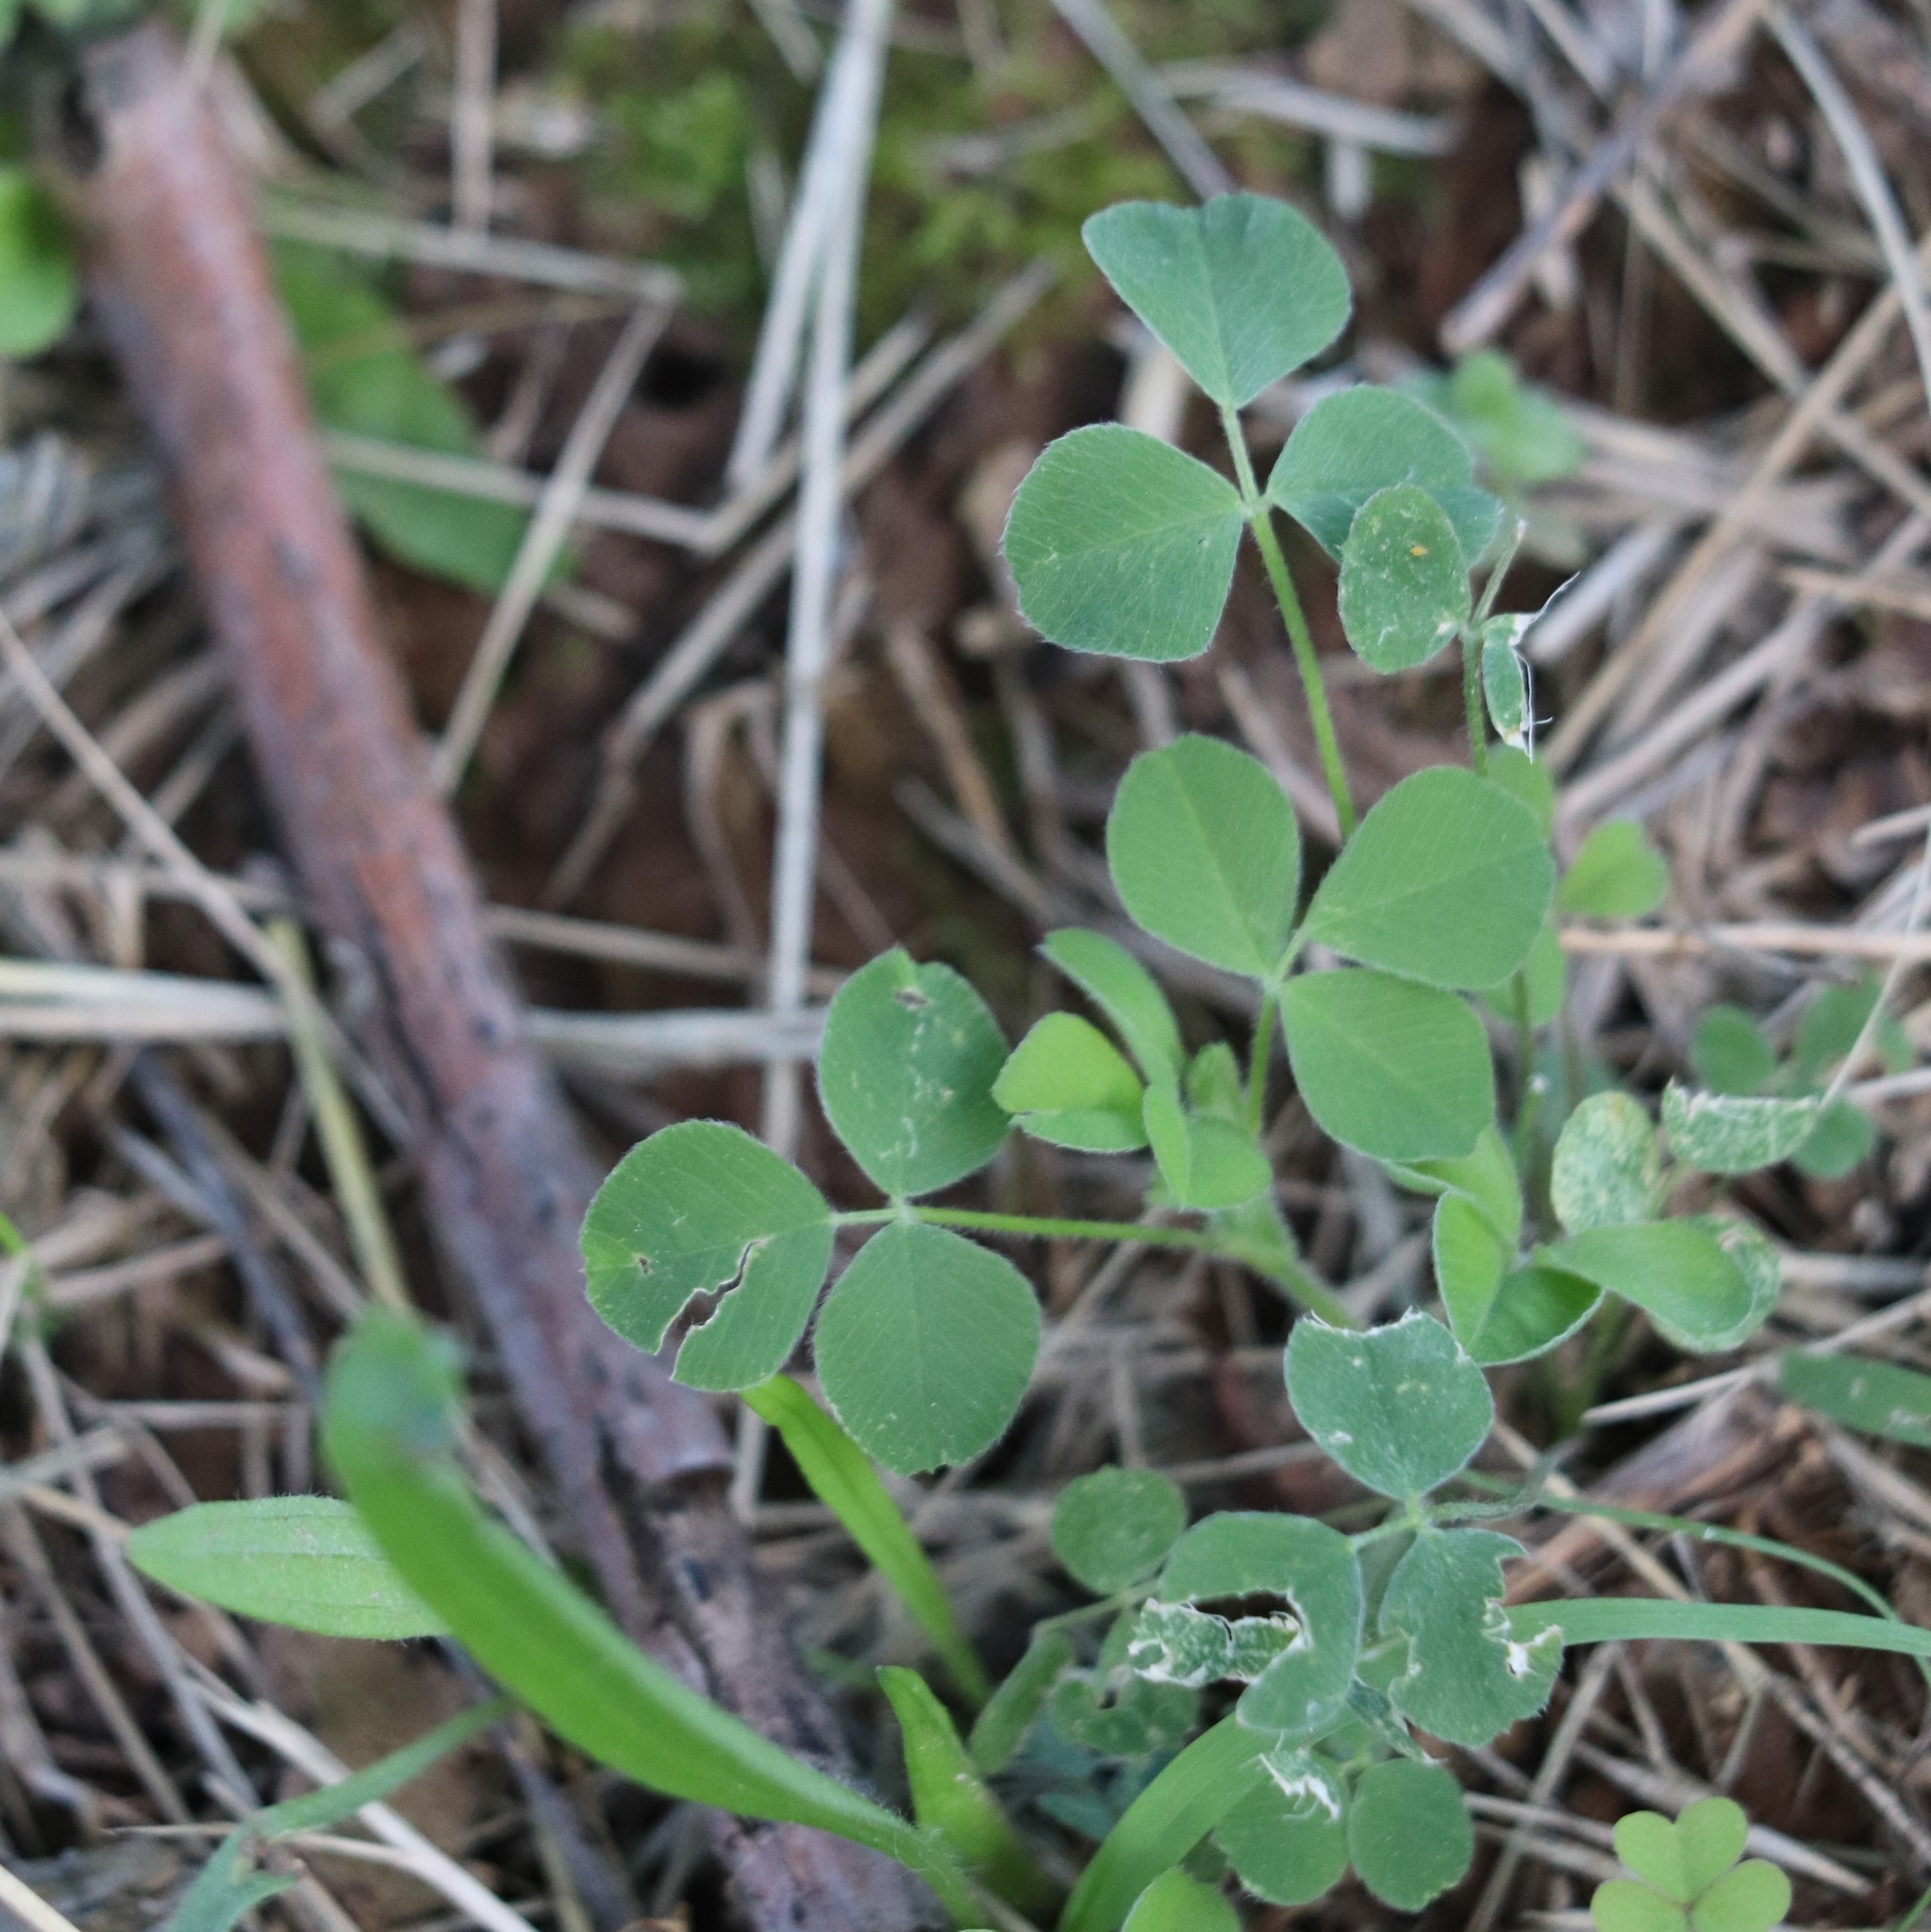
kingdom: Plantae
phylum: Tracheophyta
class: Magnoliopsida
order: Fabales
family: Fabaceae
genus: Medicago
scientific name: Medicago lupulina
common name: Black medick
